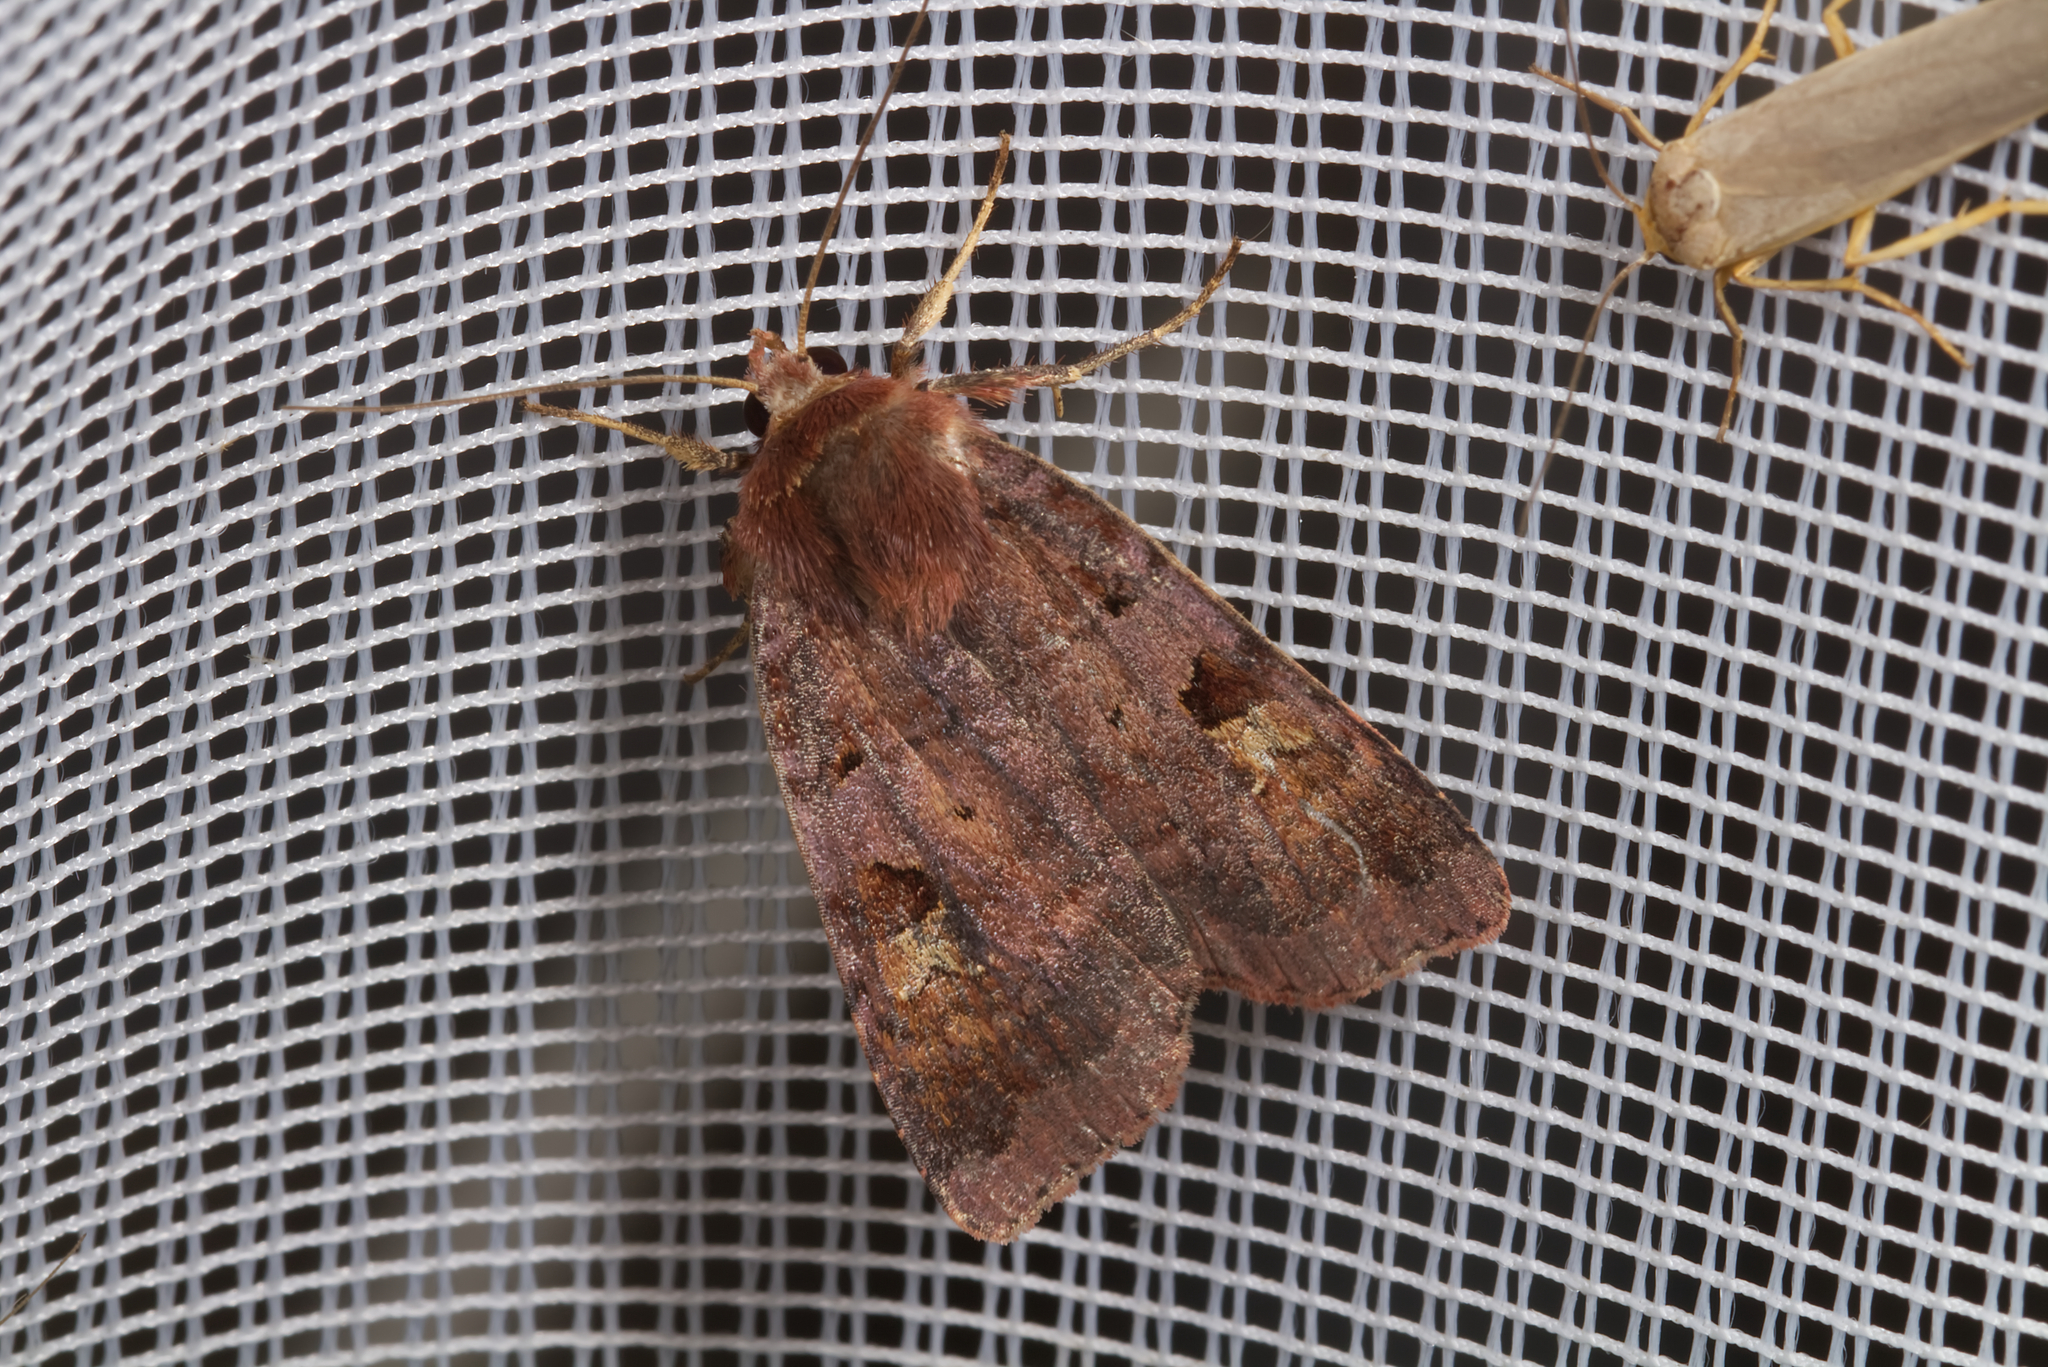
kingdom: Animalia
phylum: Arthropoda
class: Insecta
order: Lepidoptera
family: Noctuidae
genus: Diarsia
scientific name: Diarsia brunnea
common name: Purple clay
